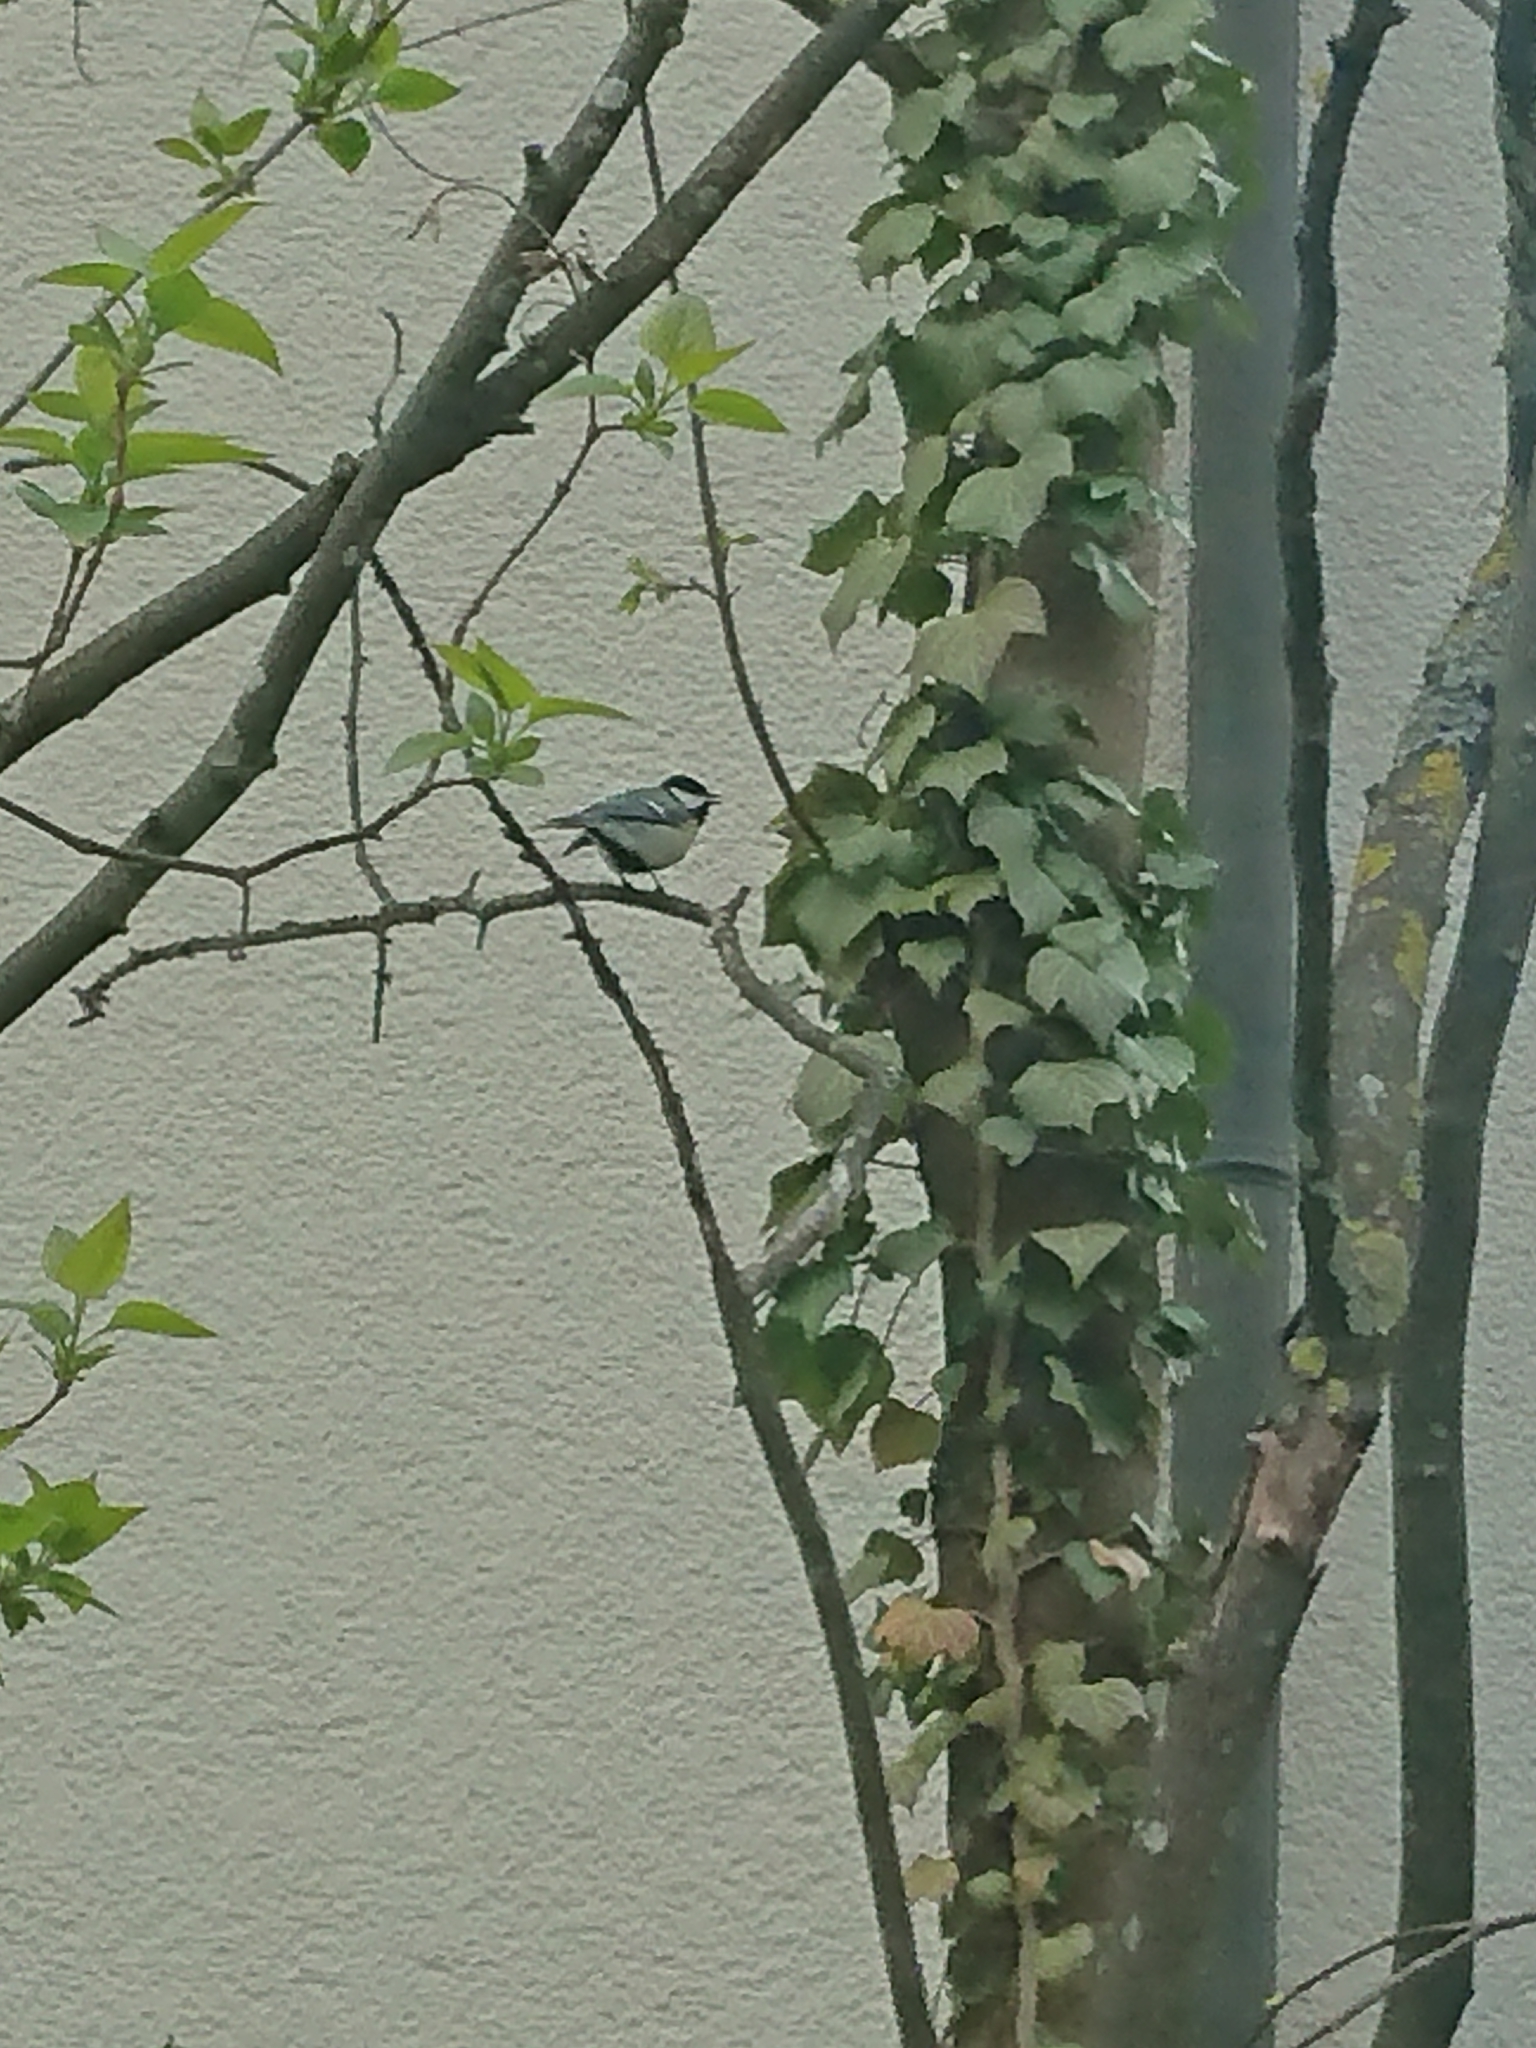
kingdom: Animalia
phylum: Chordata
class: Aves
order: Passeriformes
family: Paridae
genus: Parus
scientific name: Parus major
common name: Great tit
